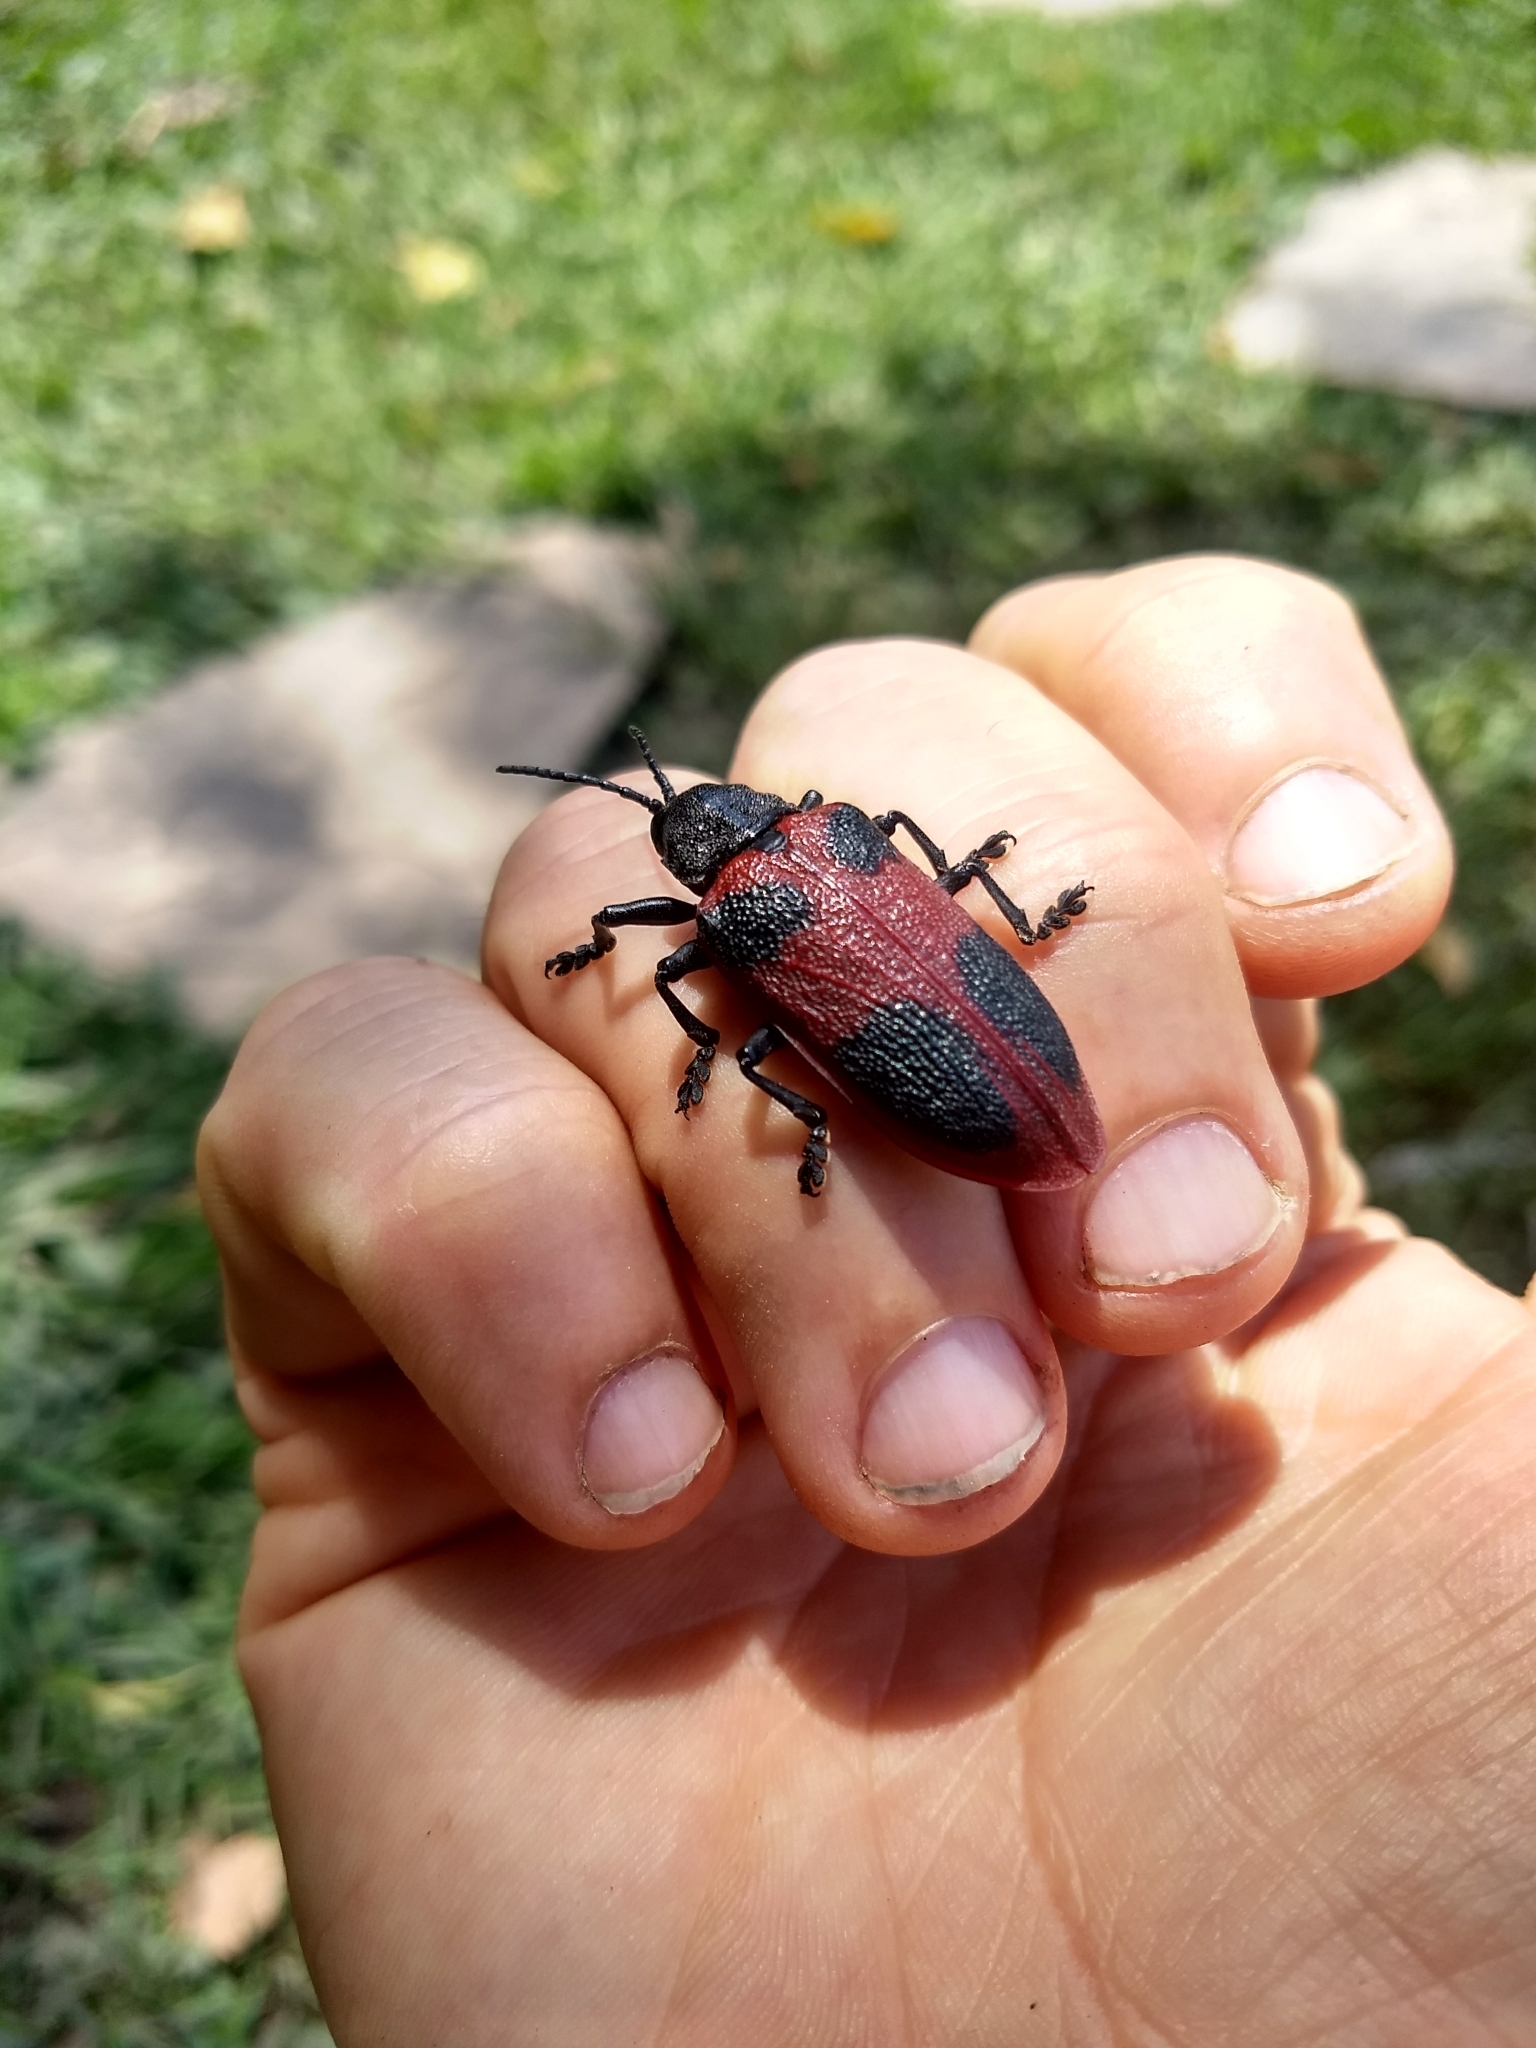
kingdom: Animalia
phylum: Arthropoda
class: Insecta
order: Coleoptera
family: Chrysomelidae
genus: Coraliomela
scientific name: Coraliomela quadrimaculata
